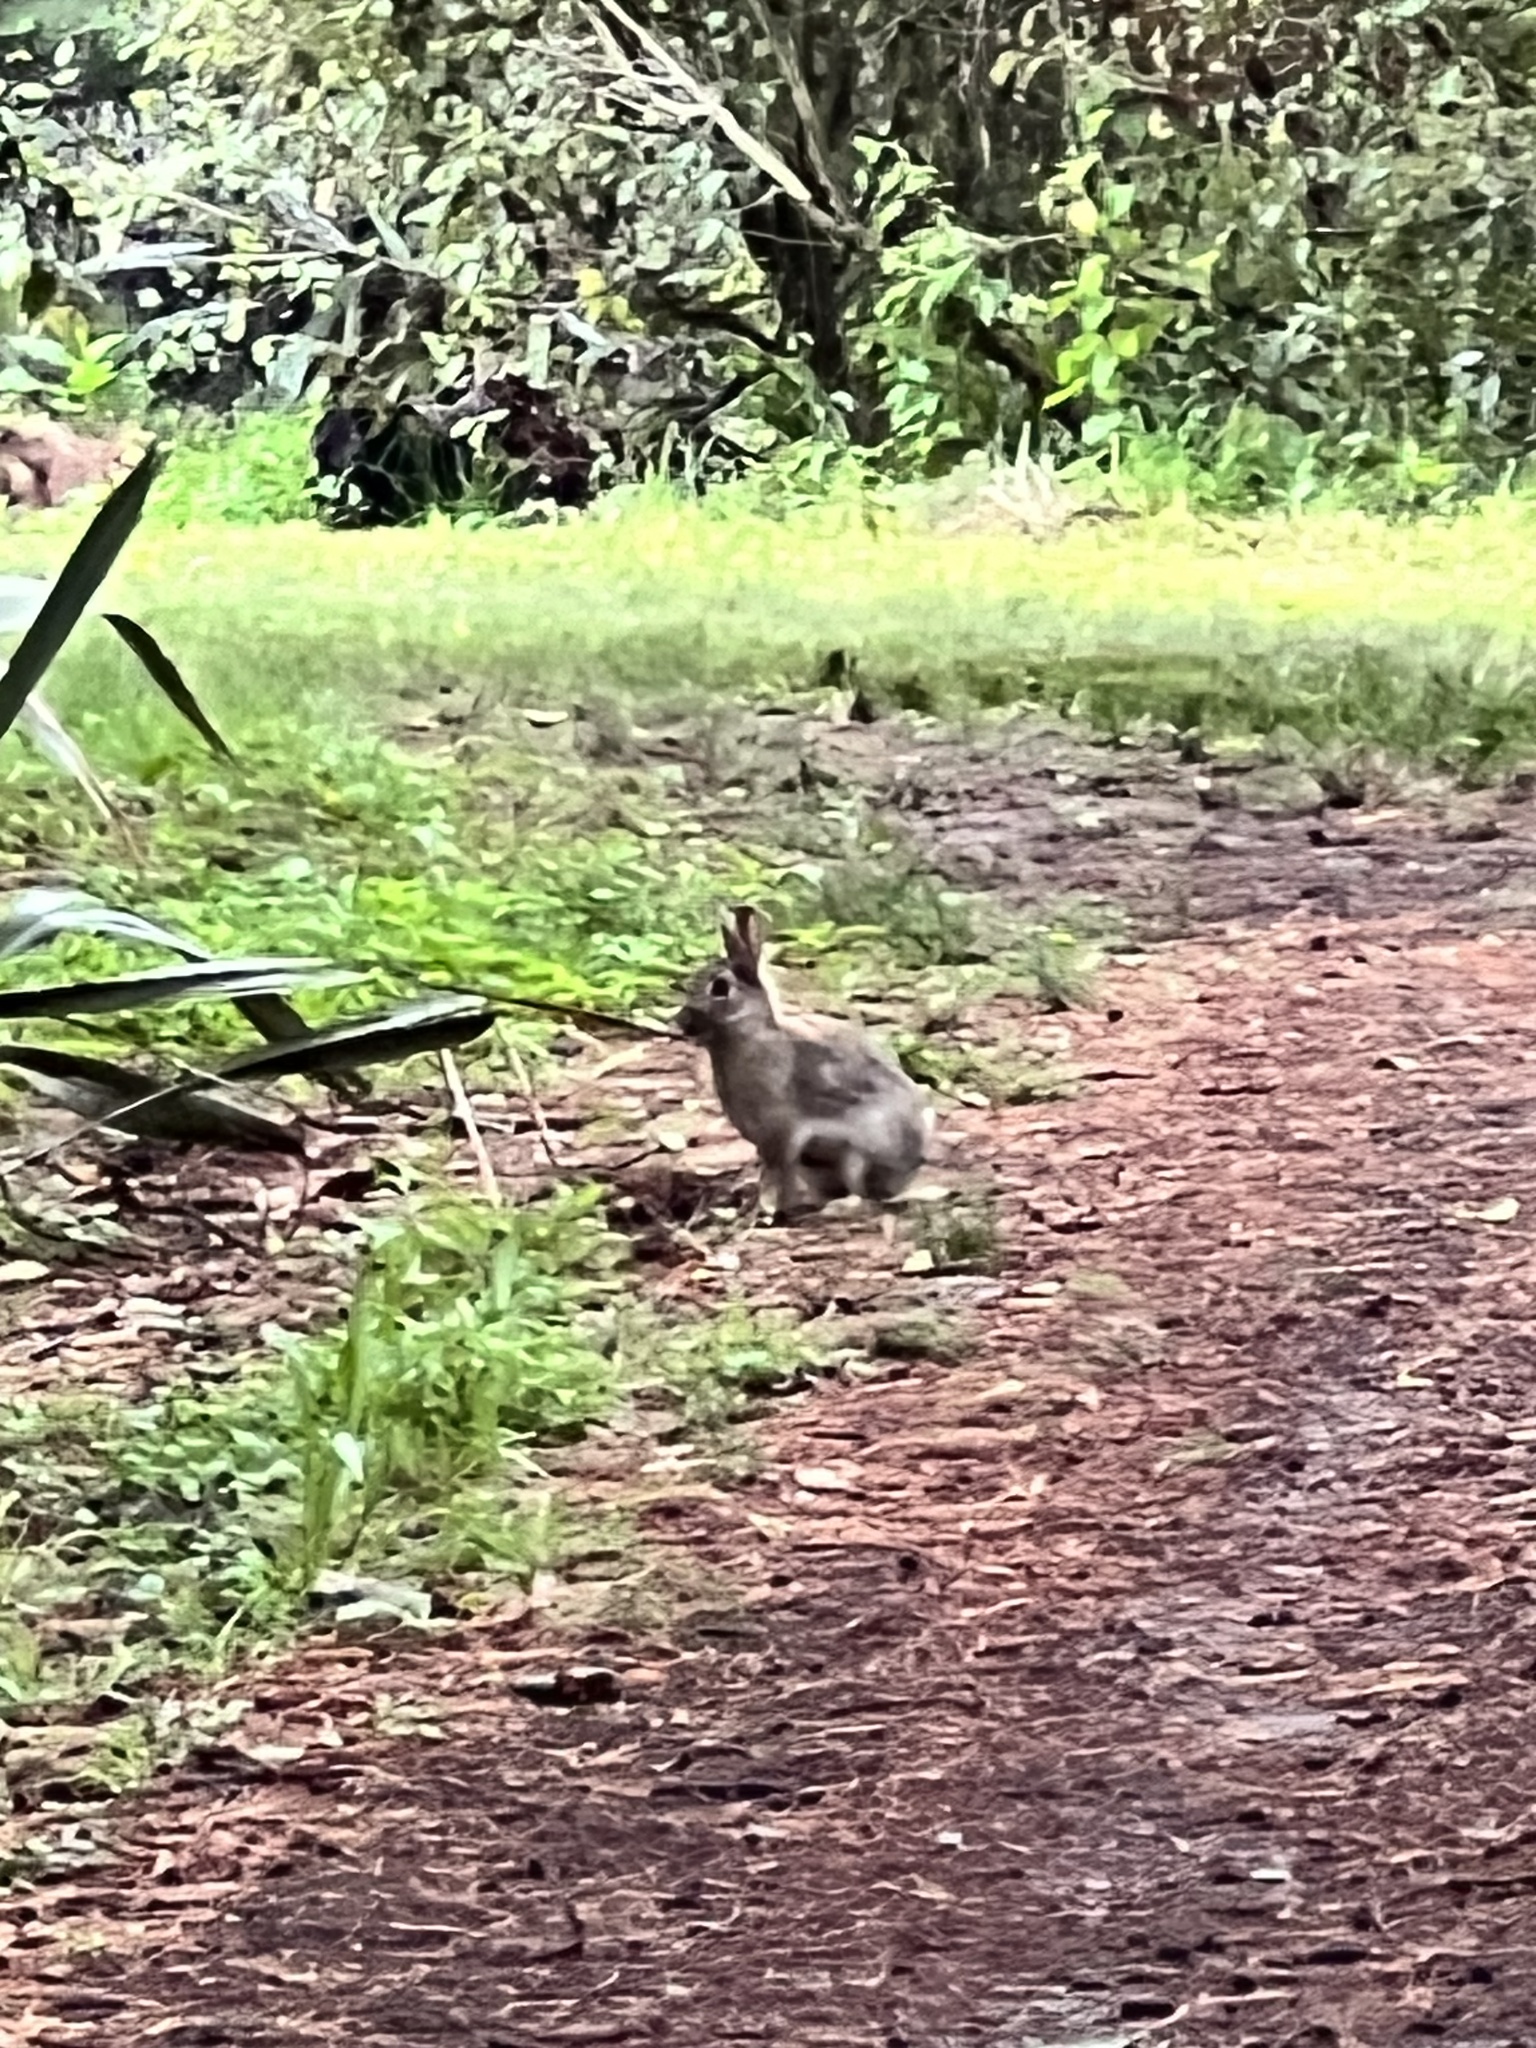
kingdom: Animalia
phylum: Chordata
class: Mammalia
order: Lagomorpha
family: Leporidae
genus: Oryctolagus
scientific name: Oryctolagus cuniculus
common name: European rabbit
